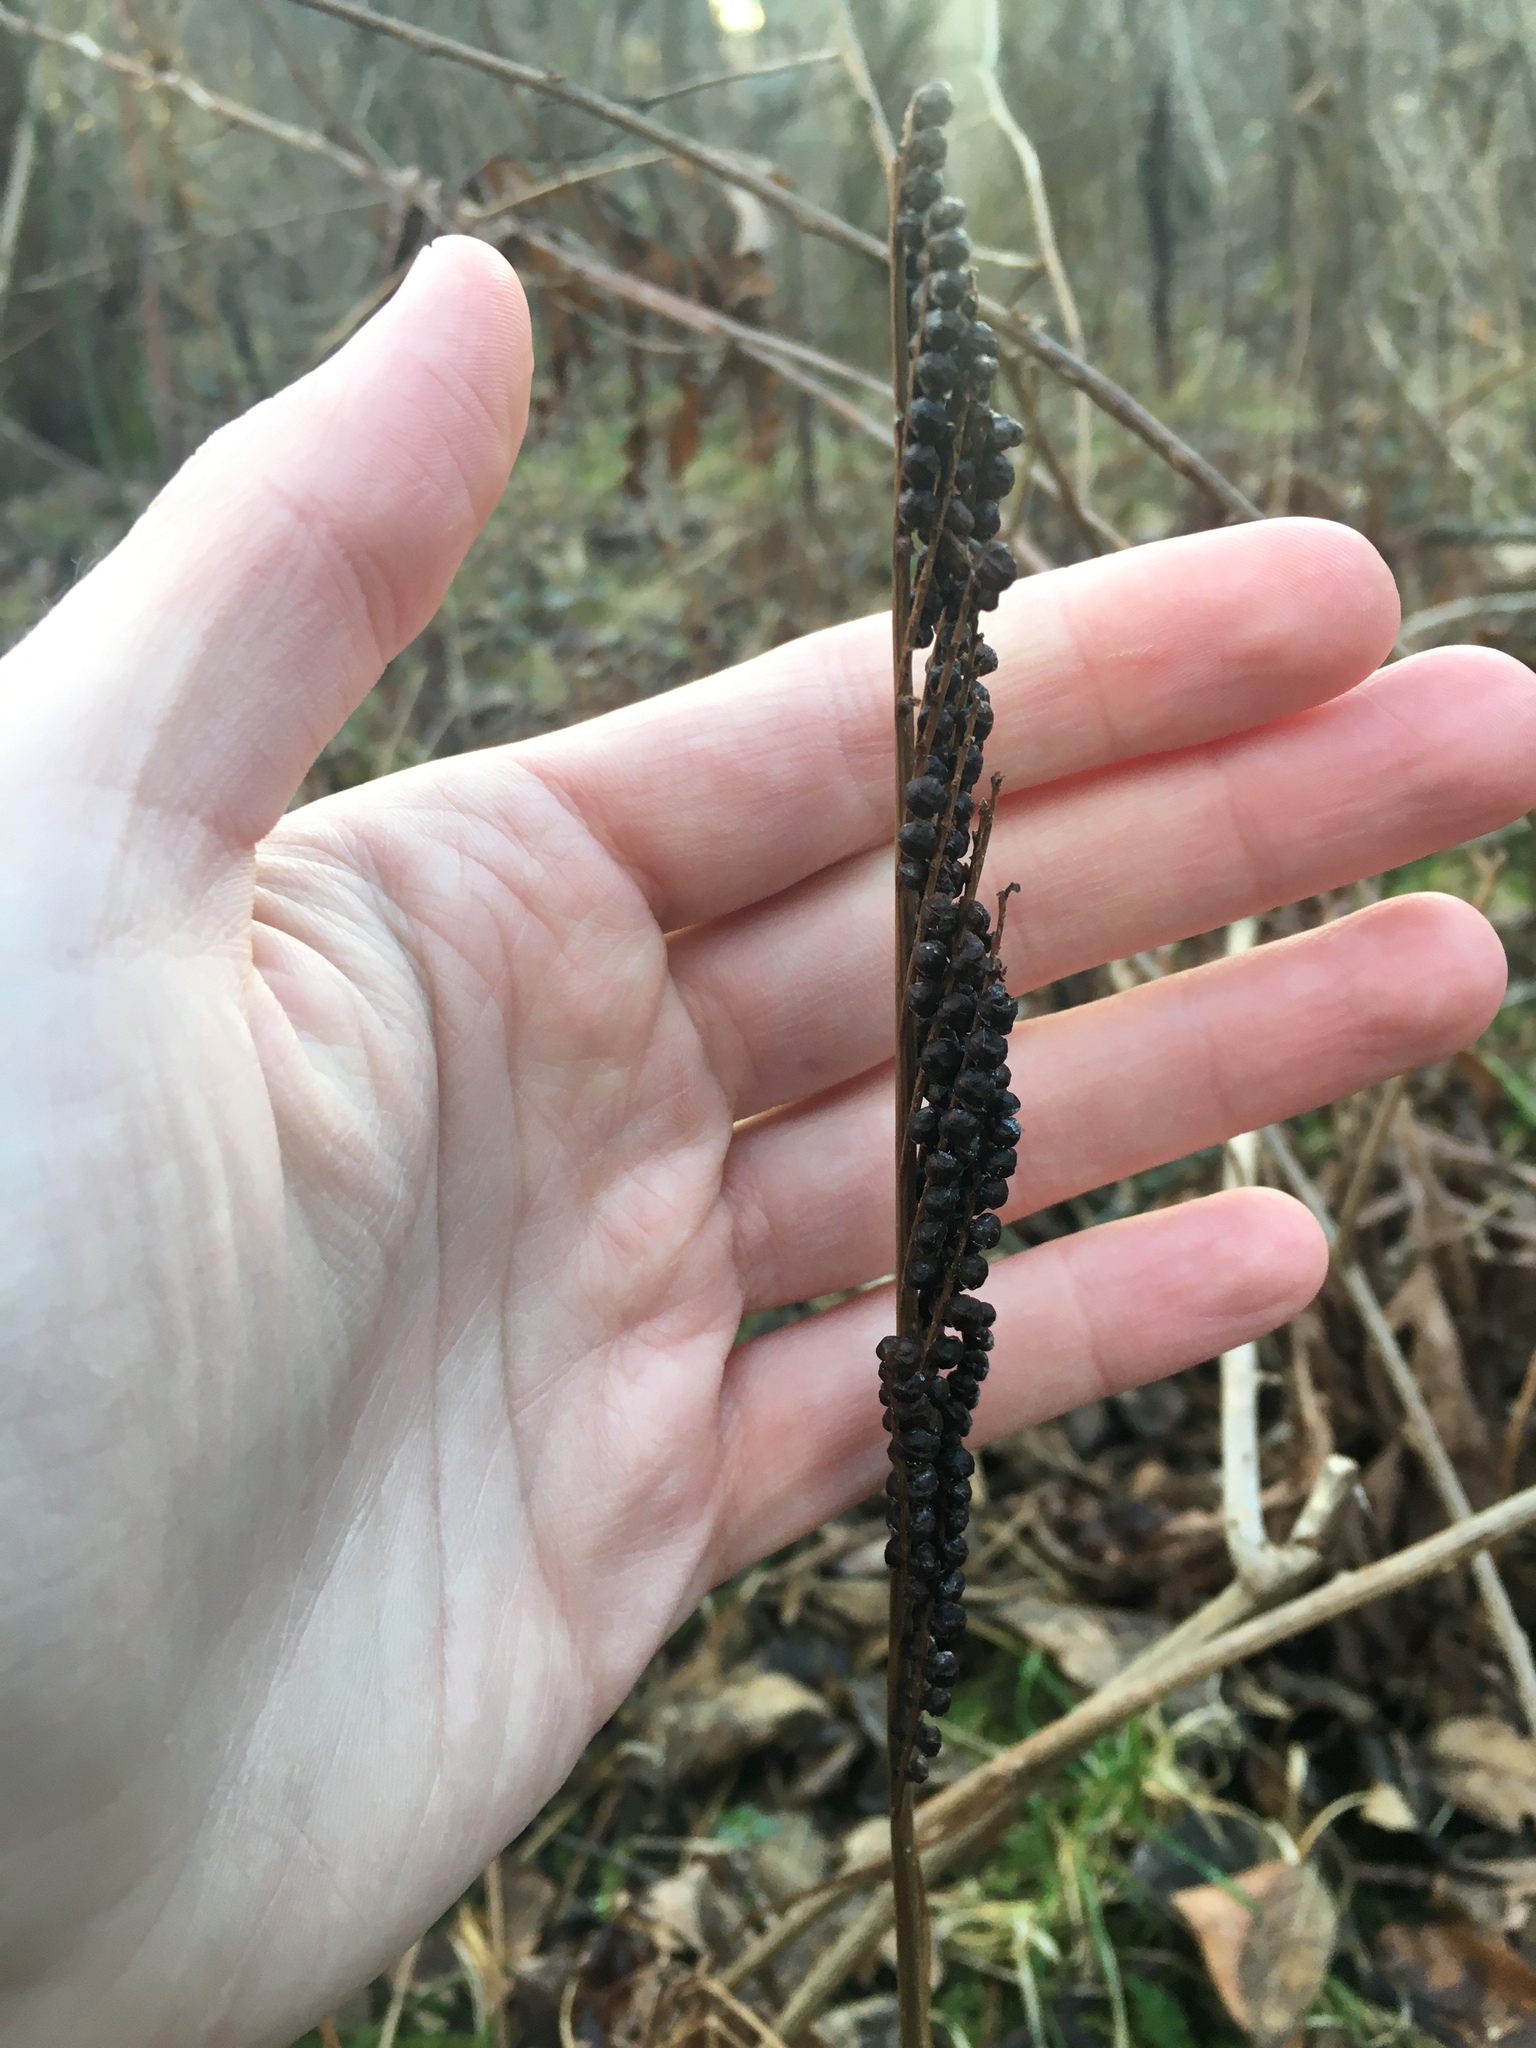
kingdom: Plantae
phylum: Tracheophyta
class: Polypodiopsida
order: Polypodiales
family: Onocleaceae
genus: Onoclea
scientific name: Onoclea sensibilis
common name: Sensitive fern
